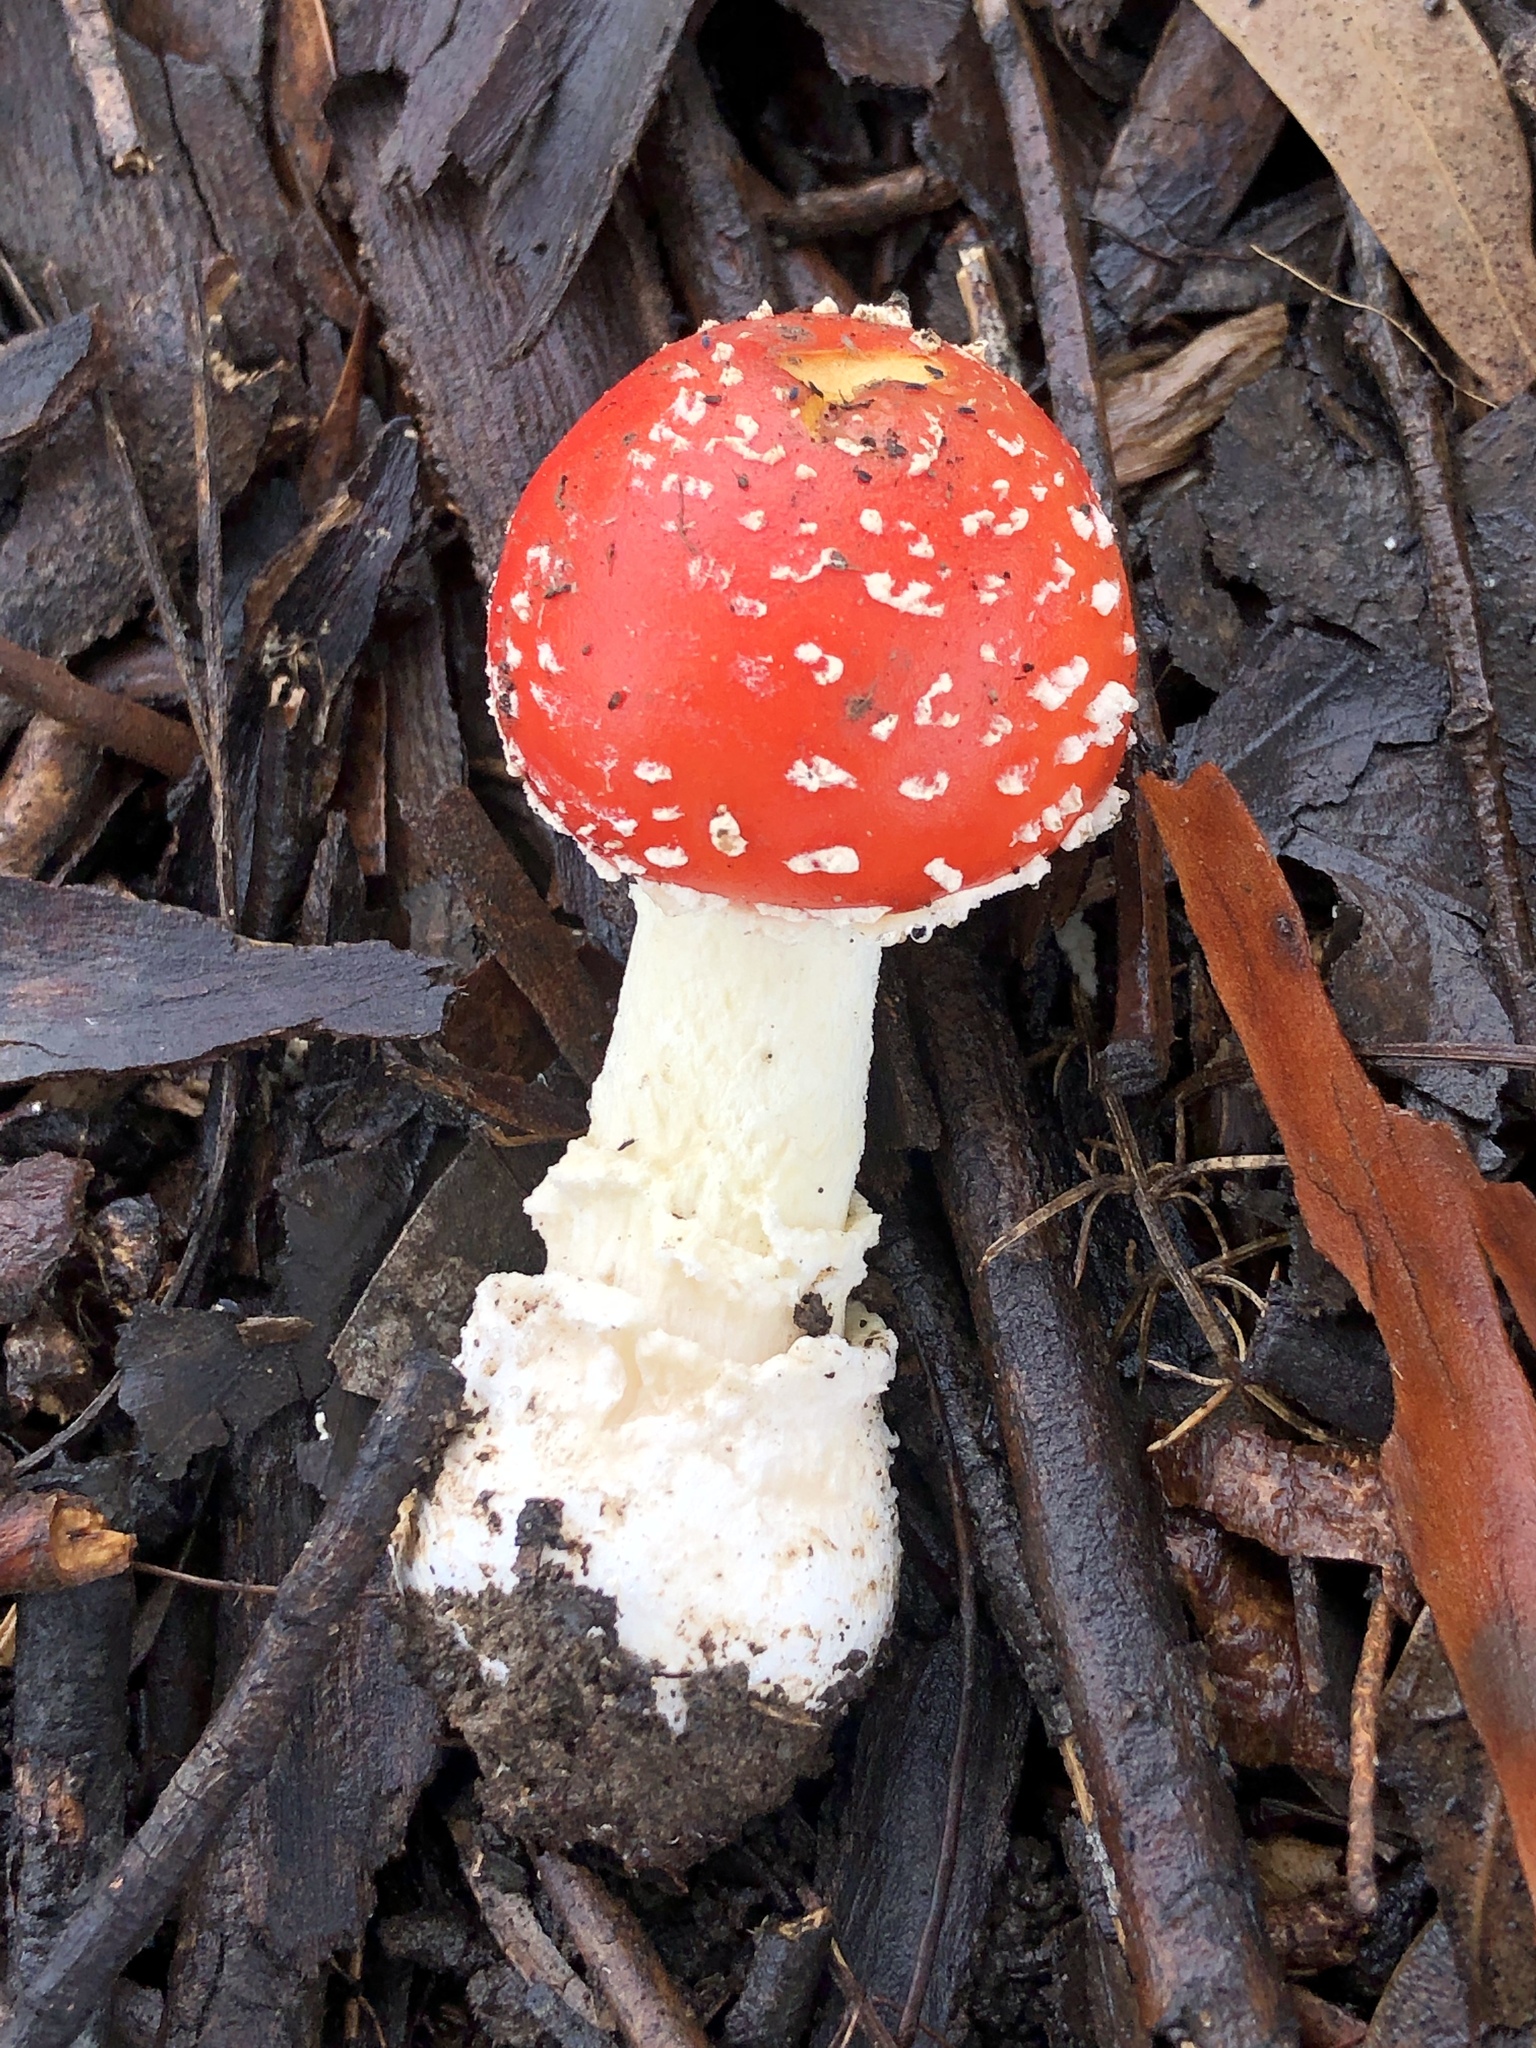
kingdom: Fungi
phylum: Basidiomycota
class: Agaricomycetes
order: Agaricales
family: Amanitaceae
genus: Amanita
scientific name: Amanita muscaria
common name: Fly agaric
